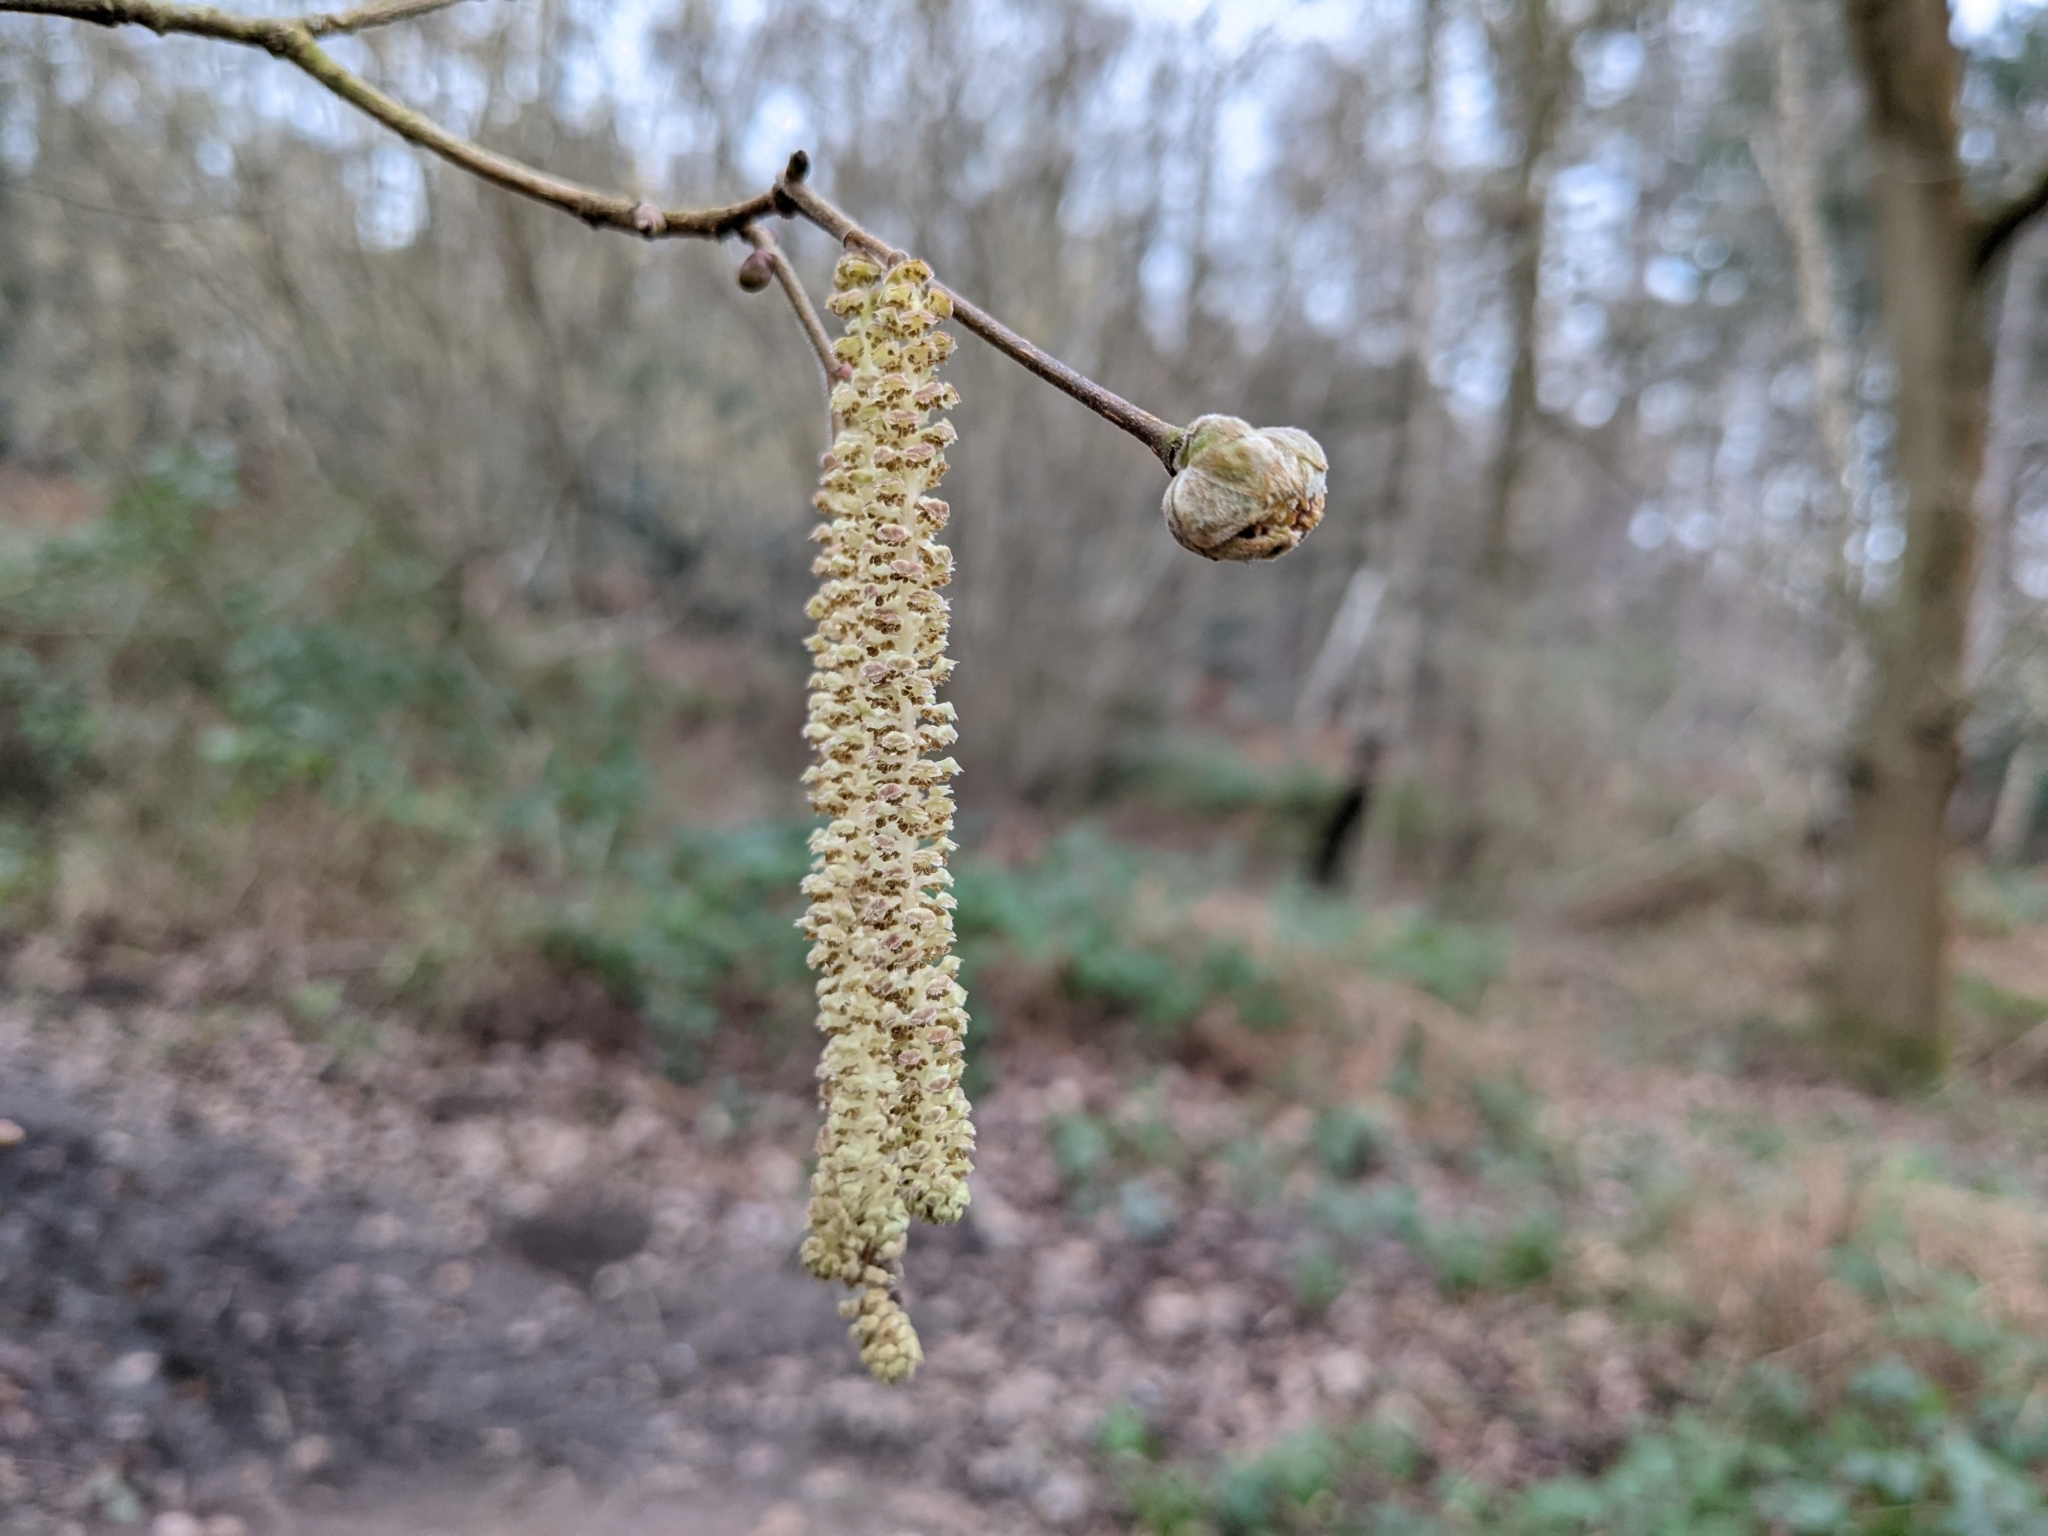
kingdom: Plantae
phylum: Tracheophyta
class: Magnoliopsida
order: Fagales
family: Betulaceae
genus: Corylus
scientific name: Corylus avellana
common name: European hazel
